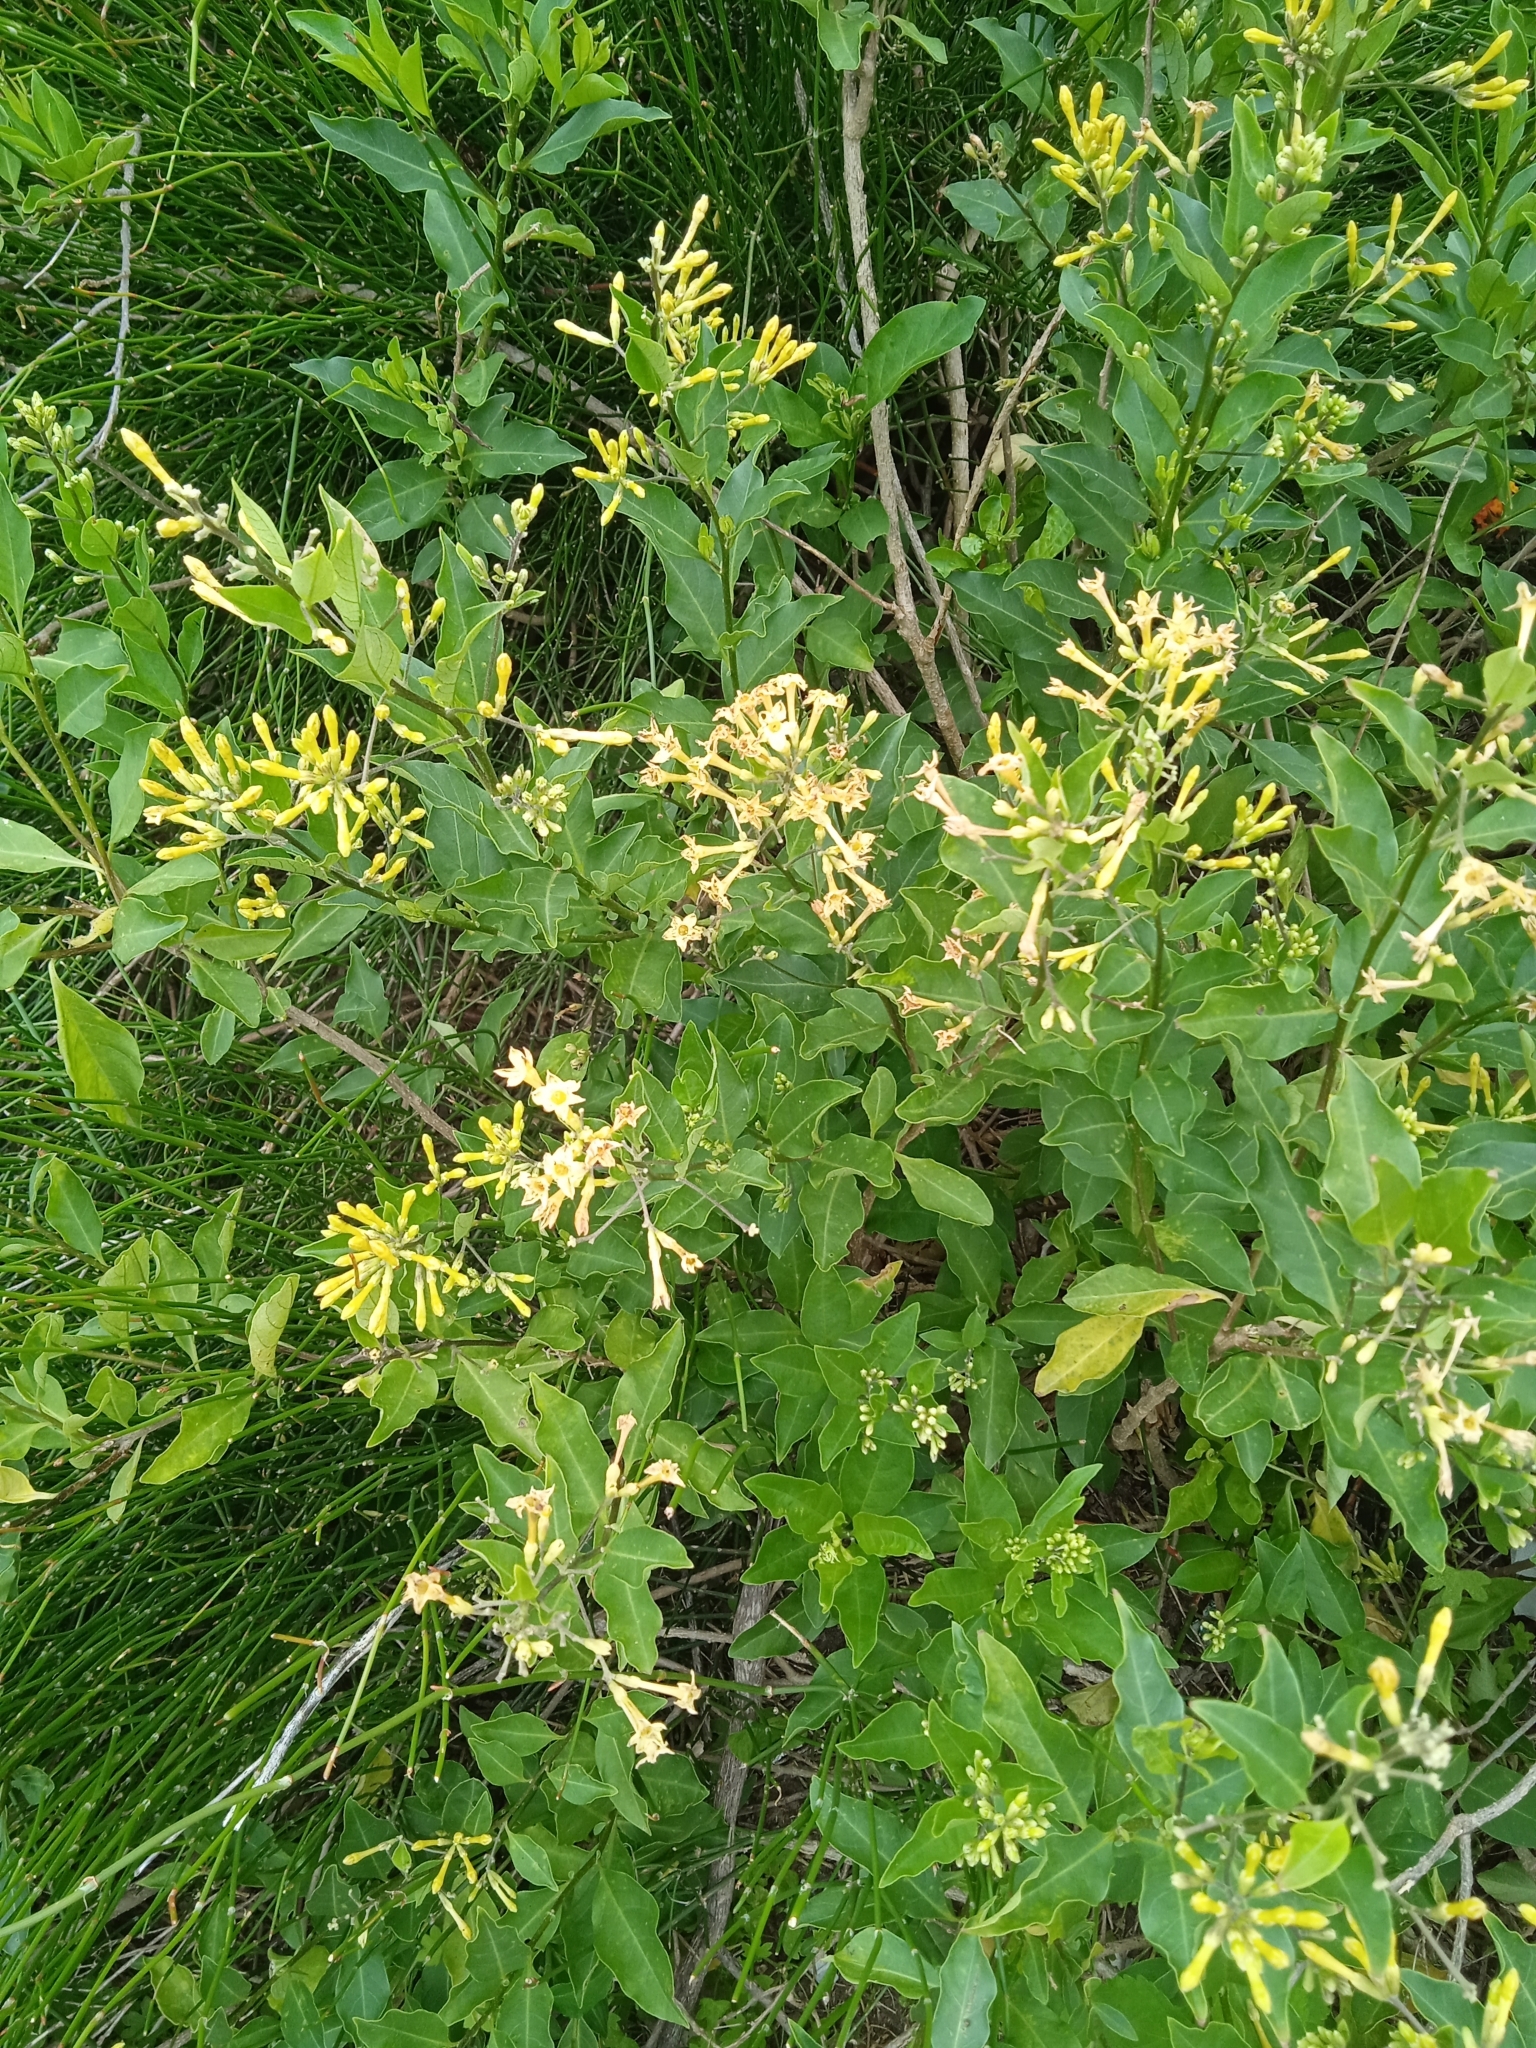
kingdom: Plantae
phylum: Tracheophyta
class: Magnoliopsida
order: Solanales
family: Solanaceae
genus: Cestrum
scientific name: Cestrum parqui
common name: Chilean cestrum
